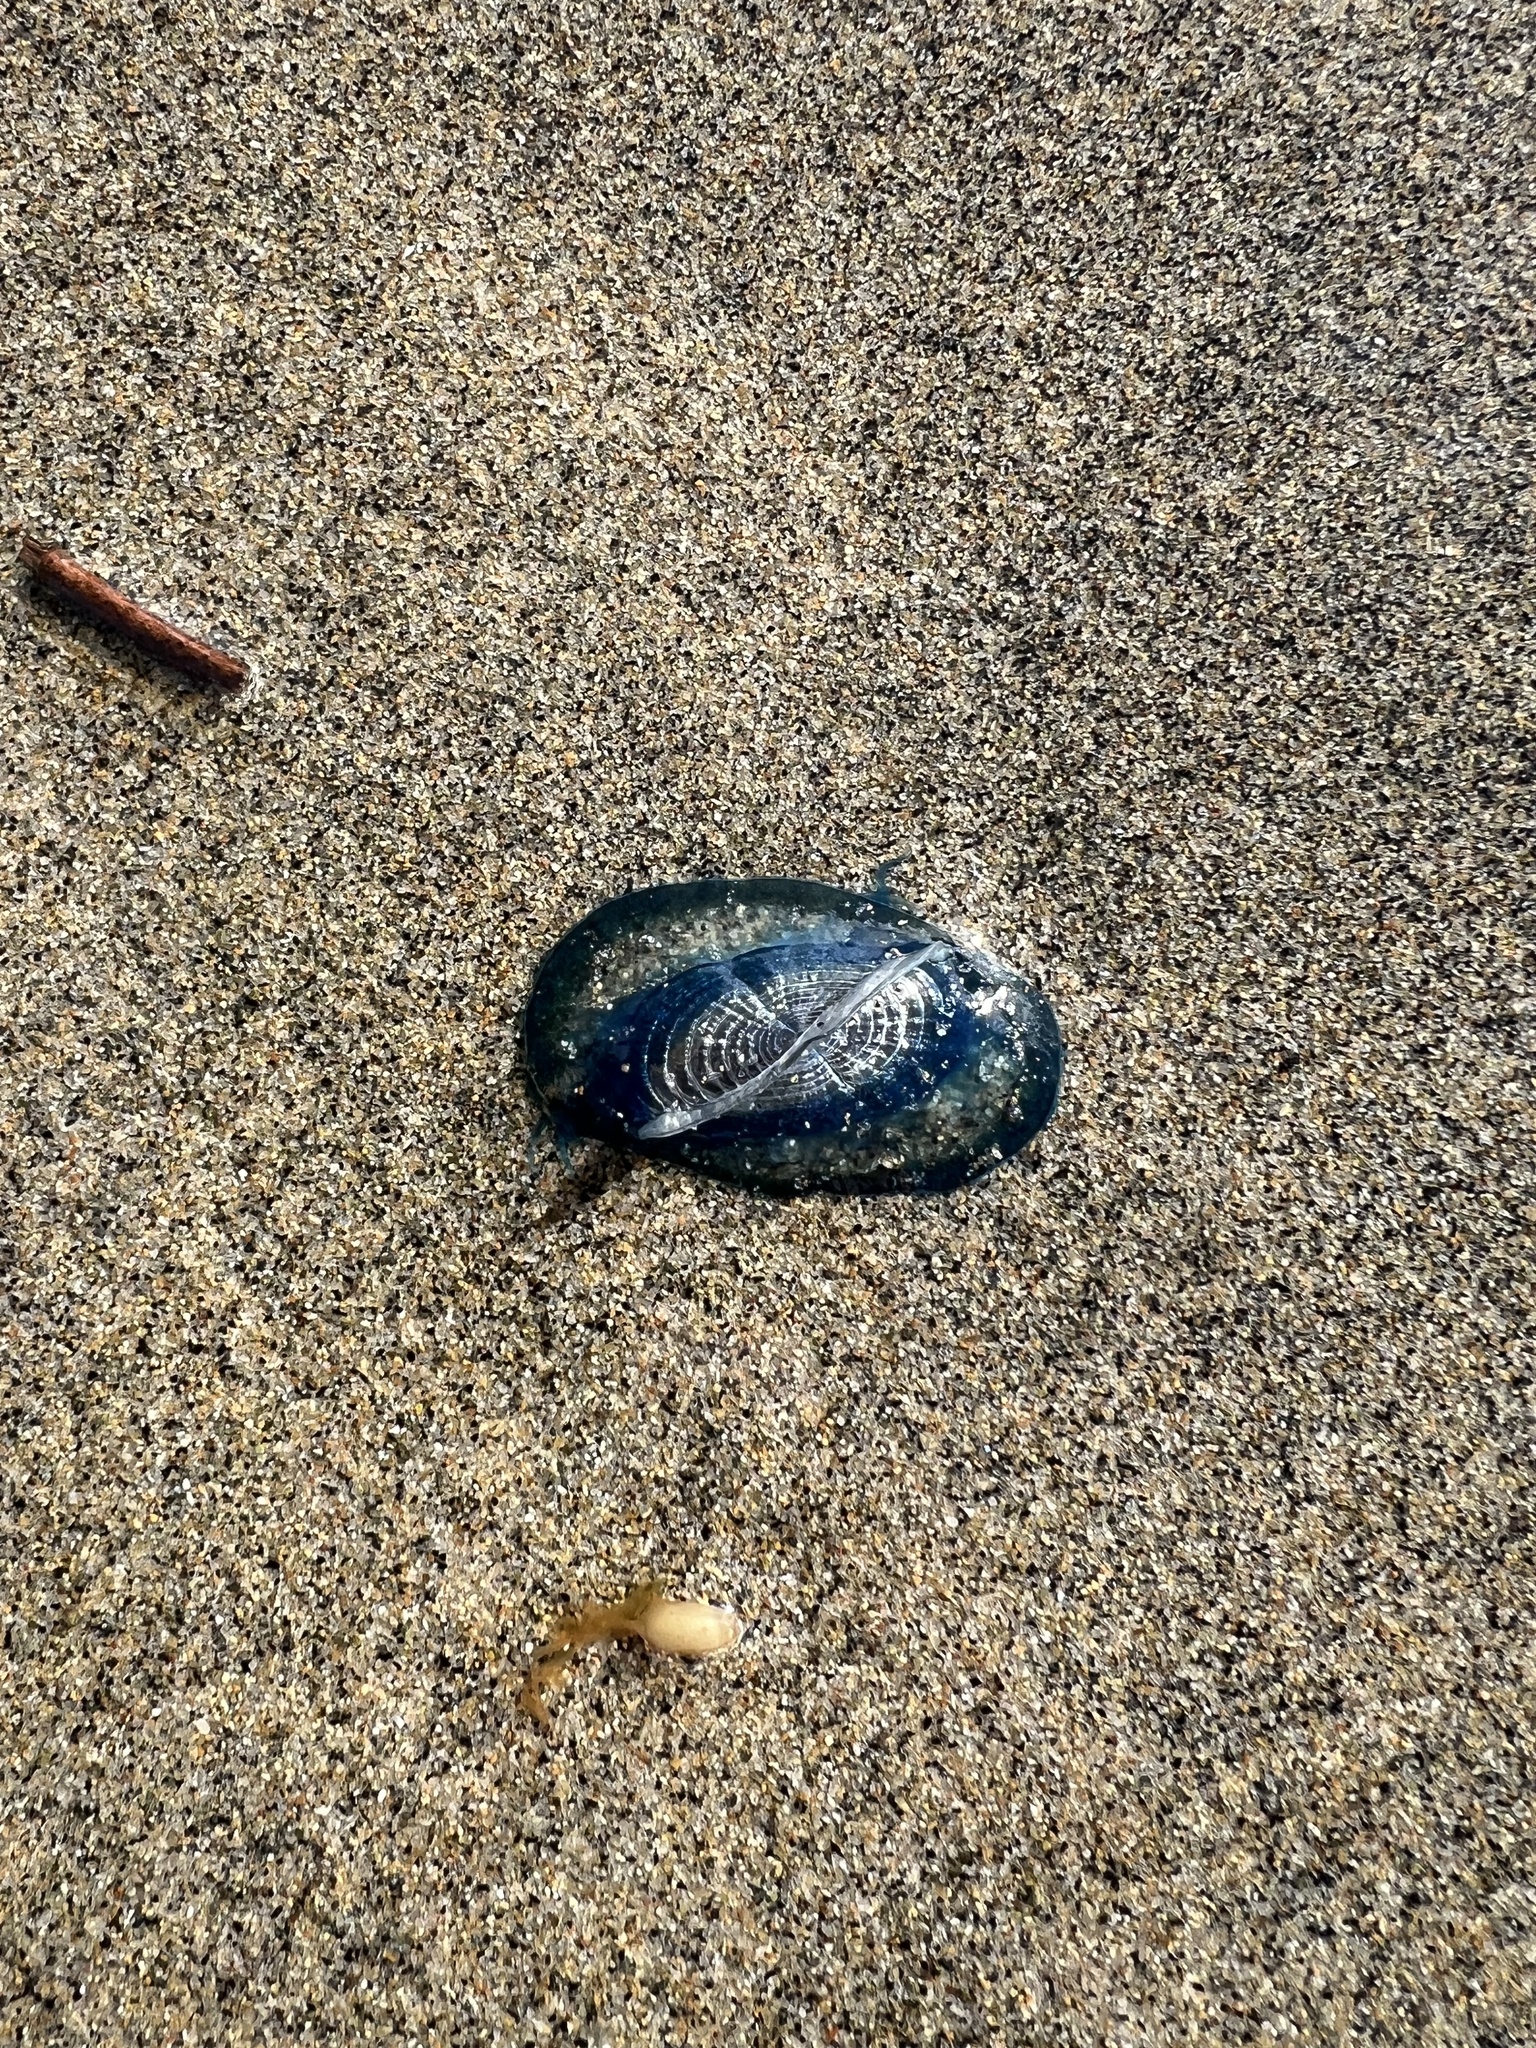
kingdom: Animalia
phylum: Cnidaria
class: Hydrozoa
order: Anthoathecata
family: Porpitidae
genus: Velella
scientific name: Velella velella
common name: By-the-wind-sailor
